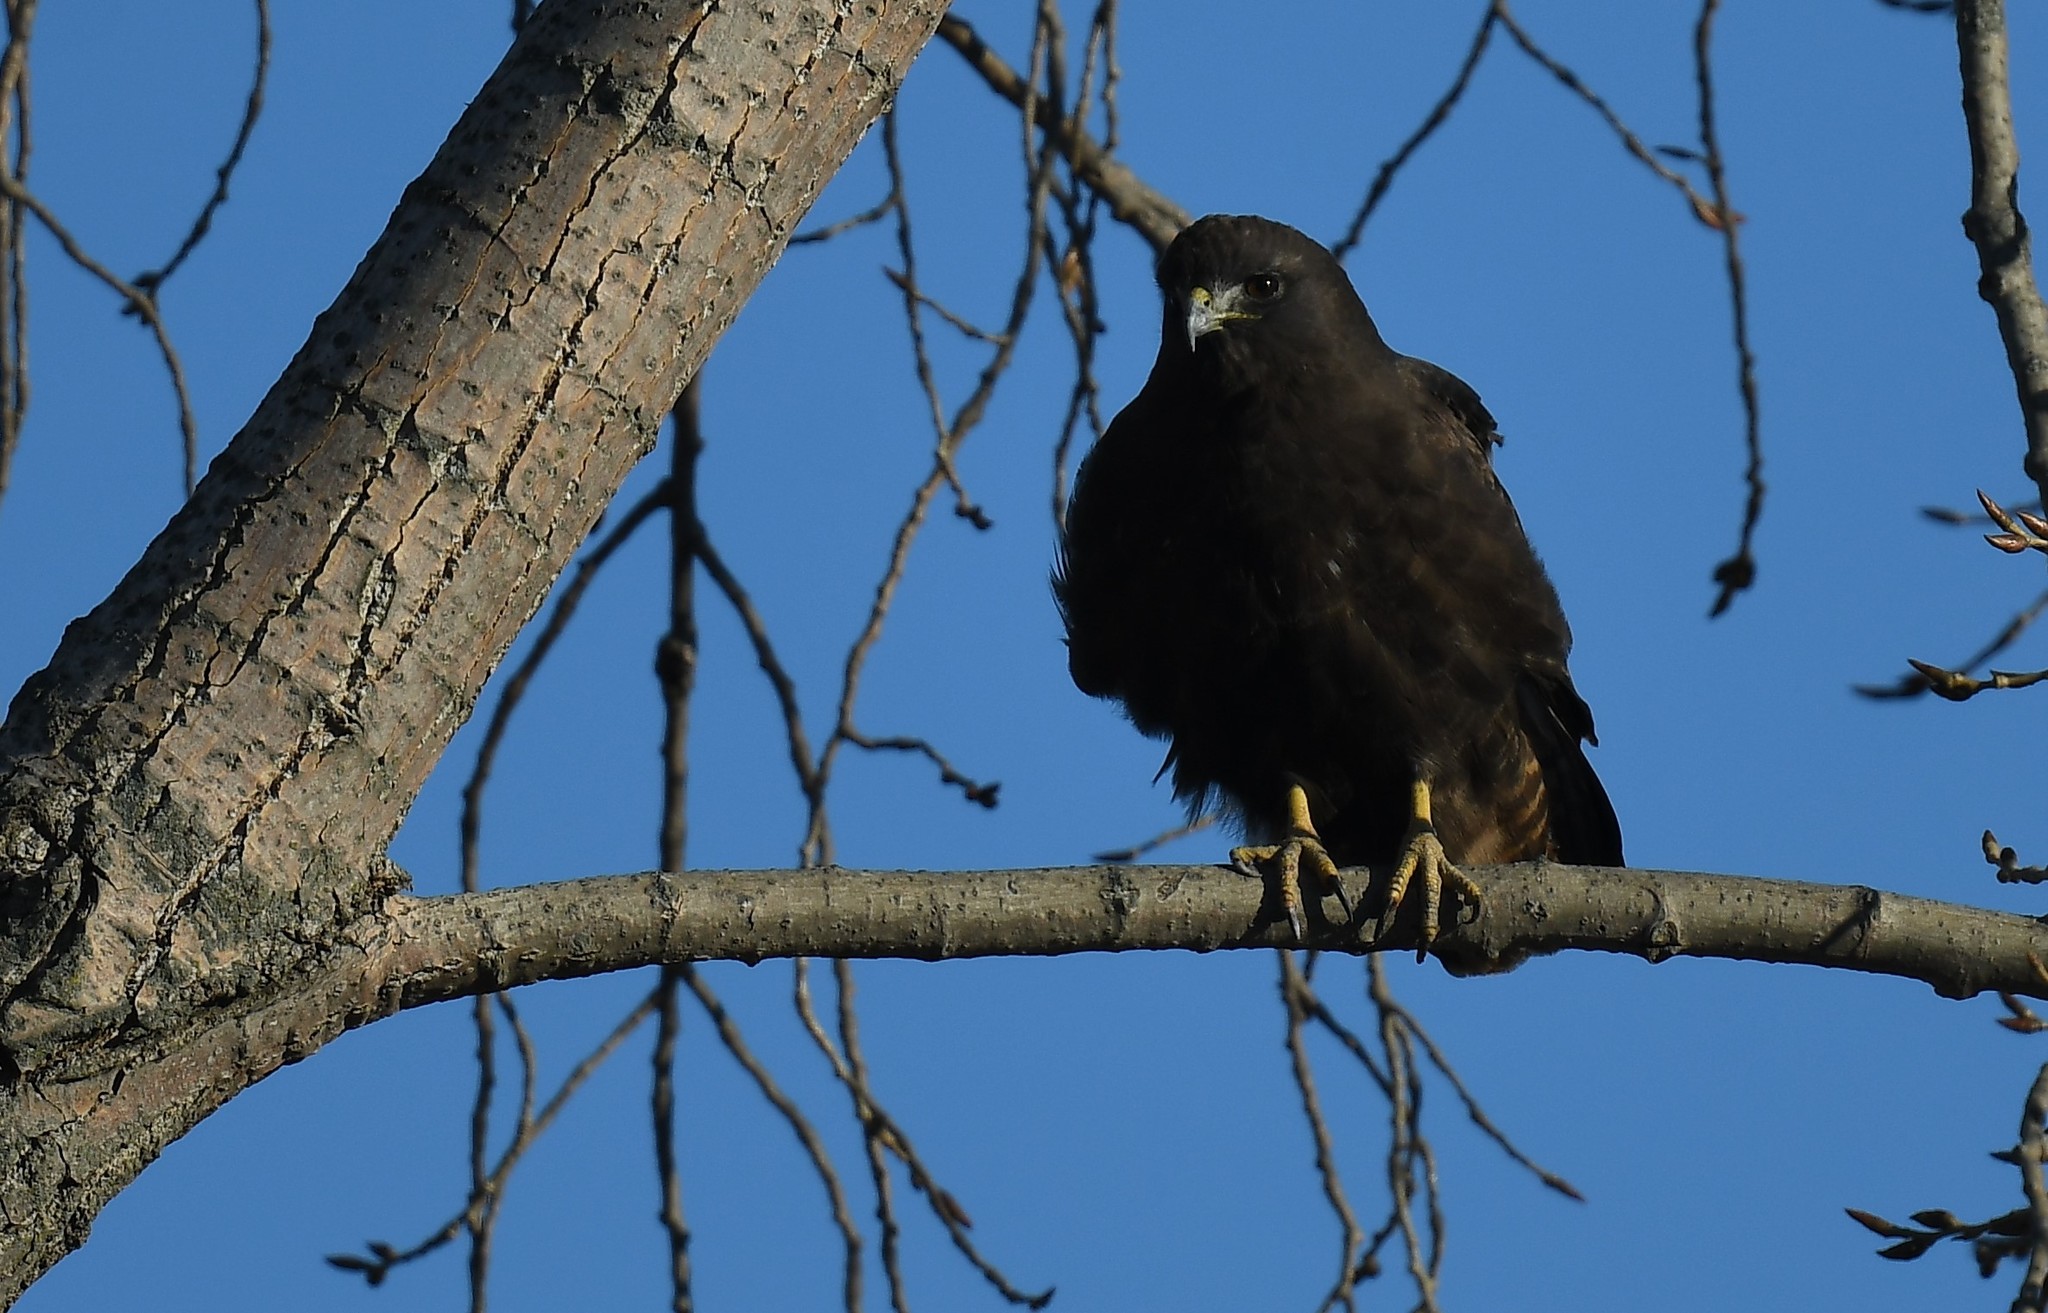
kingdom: Animalia
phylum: Chordata
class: Aves
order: Accipitriformes
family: Accipitridae
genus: Buteo
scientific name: Buteo jamaicensis
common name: Red-tailed hawk
